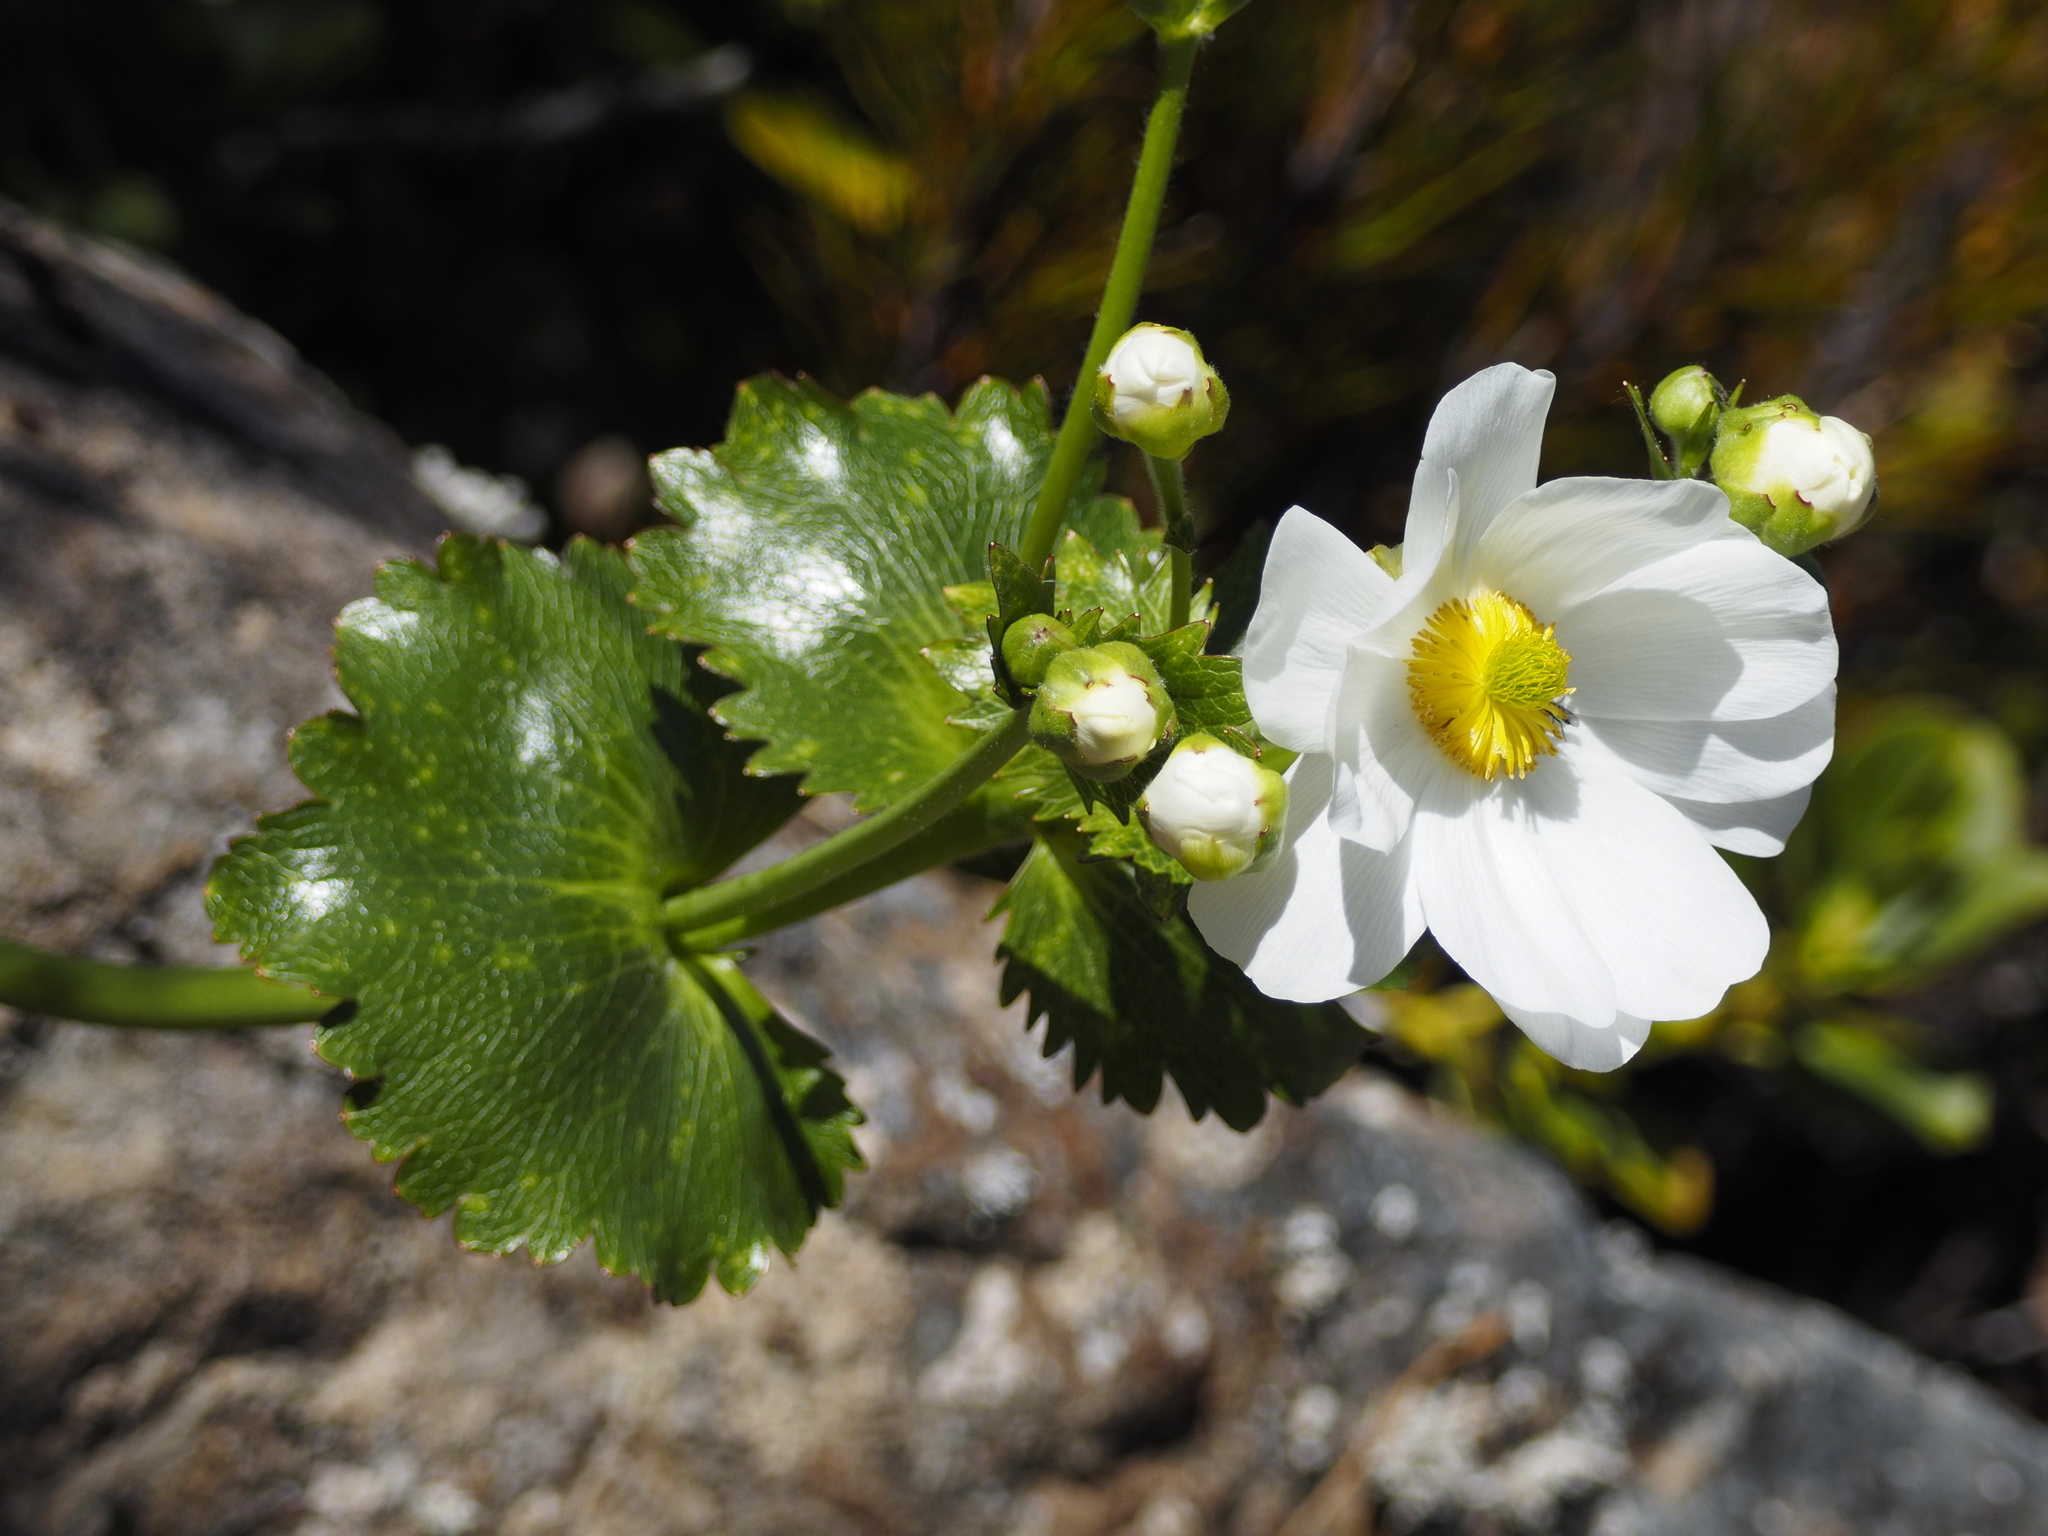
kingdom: Plantae
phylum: Tracheophyta
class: Magnoliopsida
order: Ranunculales
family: Ranunculaceae
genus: Ranunculus
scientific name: Ranunculus lyallii
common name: Mountain-lily
